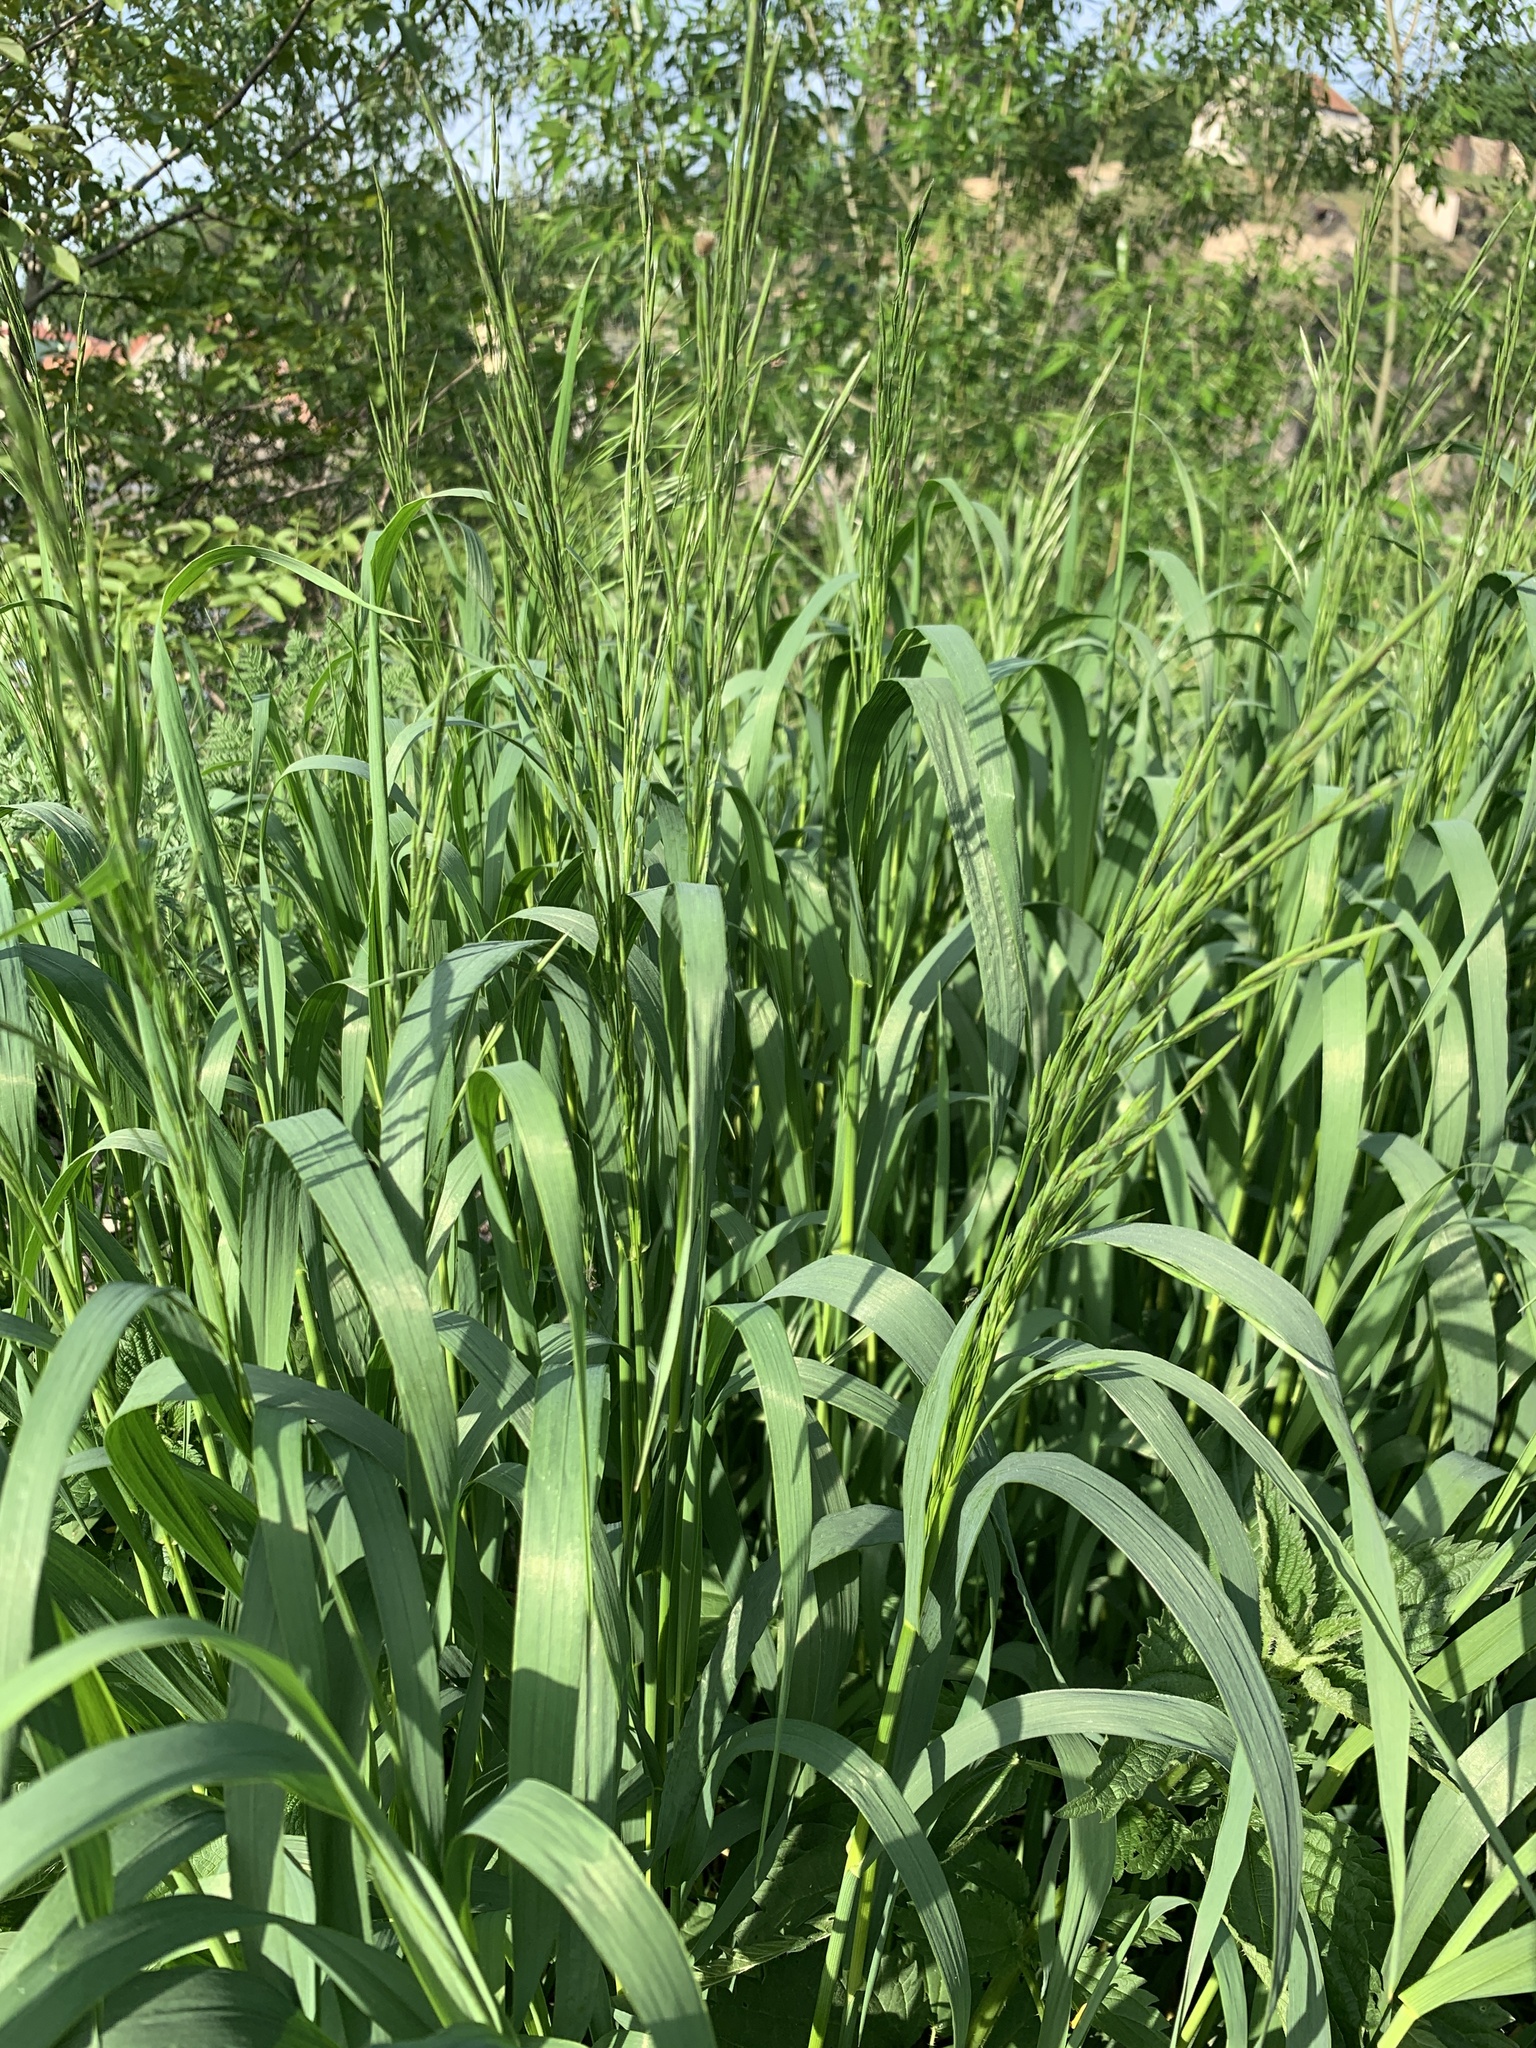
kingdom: Plantae
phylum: Tracheophyta
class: Liliopsida
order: Poales
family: Poaceae
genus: Bromus
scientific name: Bromus inermis
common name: Smooth brome
